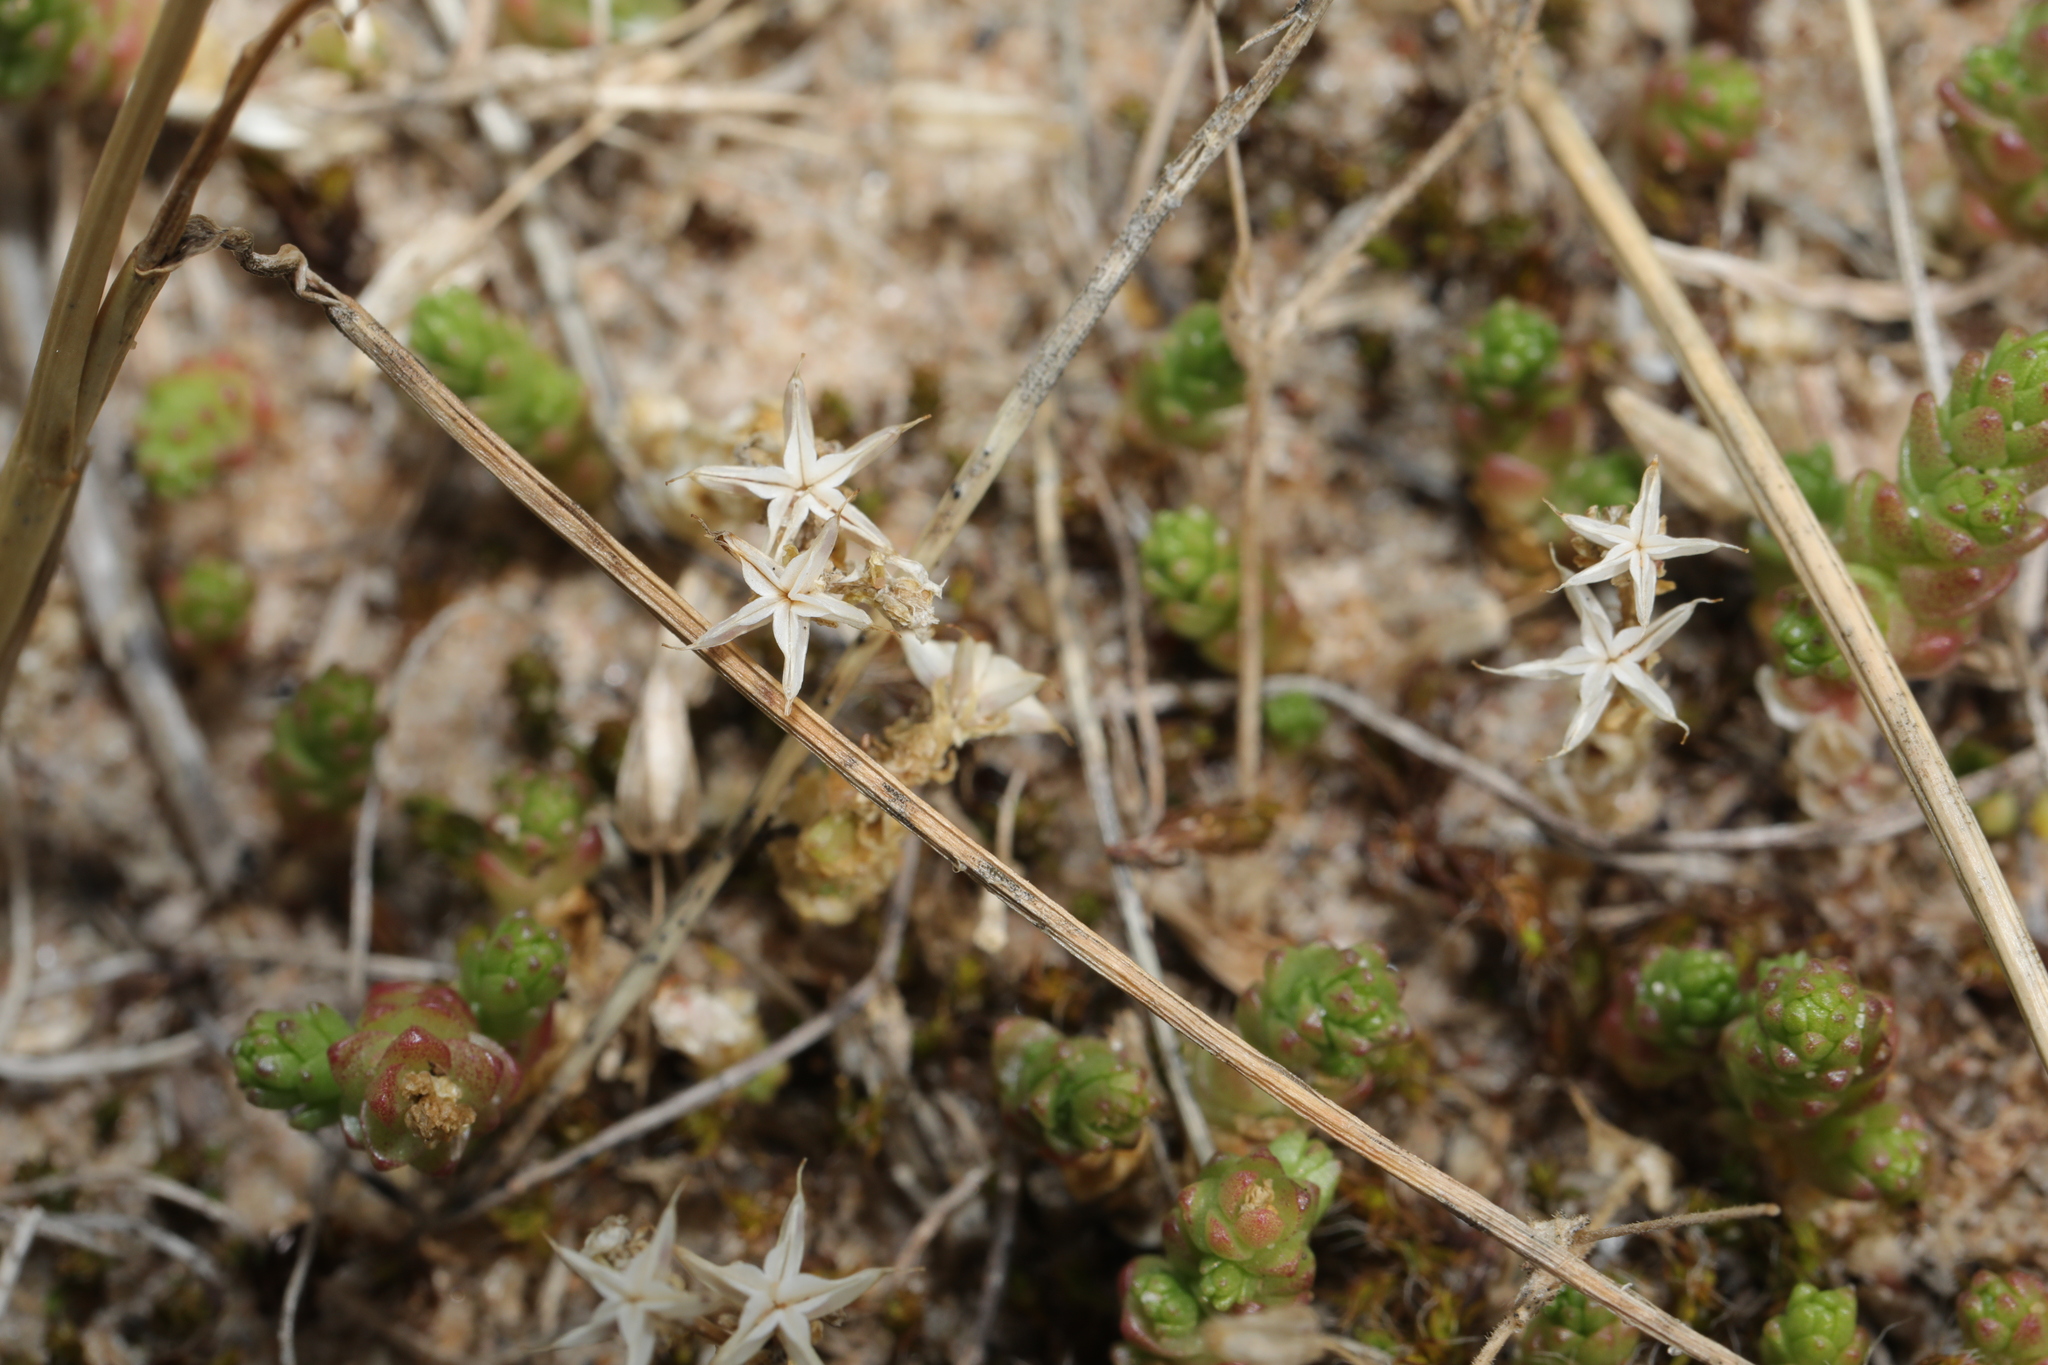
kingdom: Plantae
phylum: Tracheophyta
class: Magnoliopsida
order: Saxifragales
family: Crassulaceae
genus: Sedum
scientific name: Sedum acre
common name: Biting stonecrop
